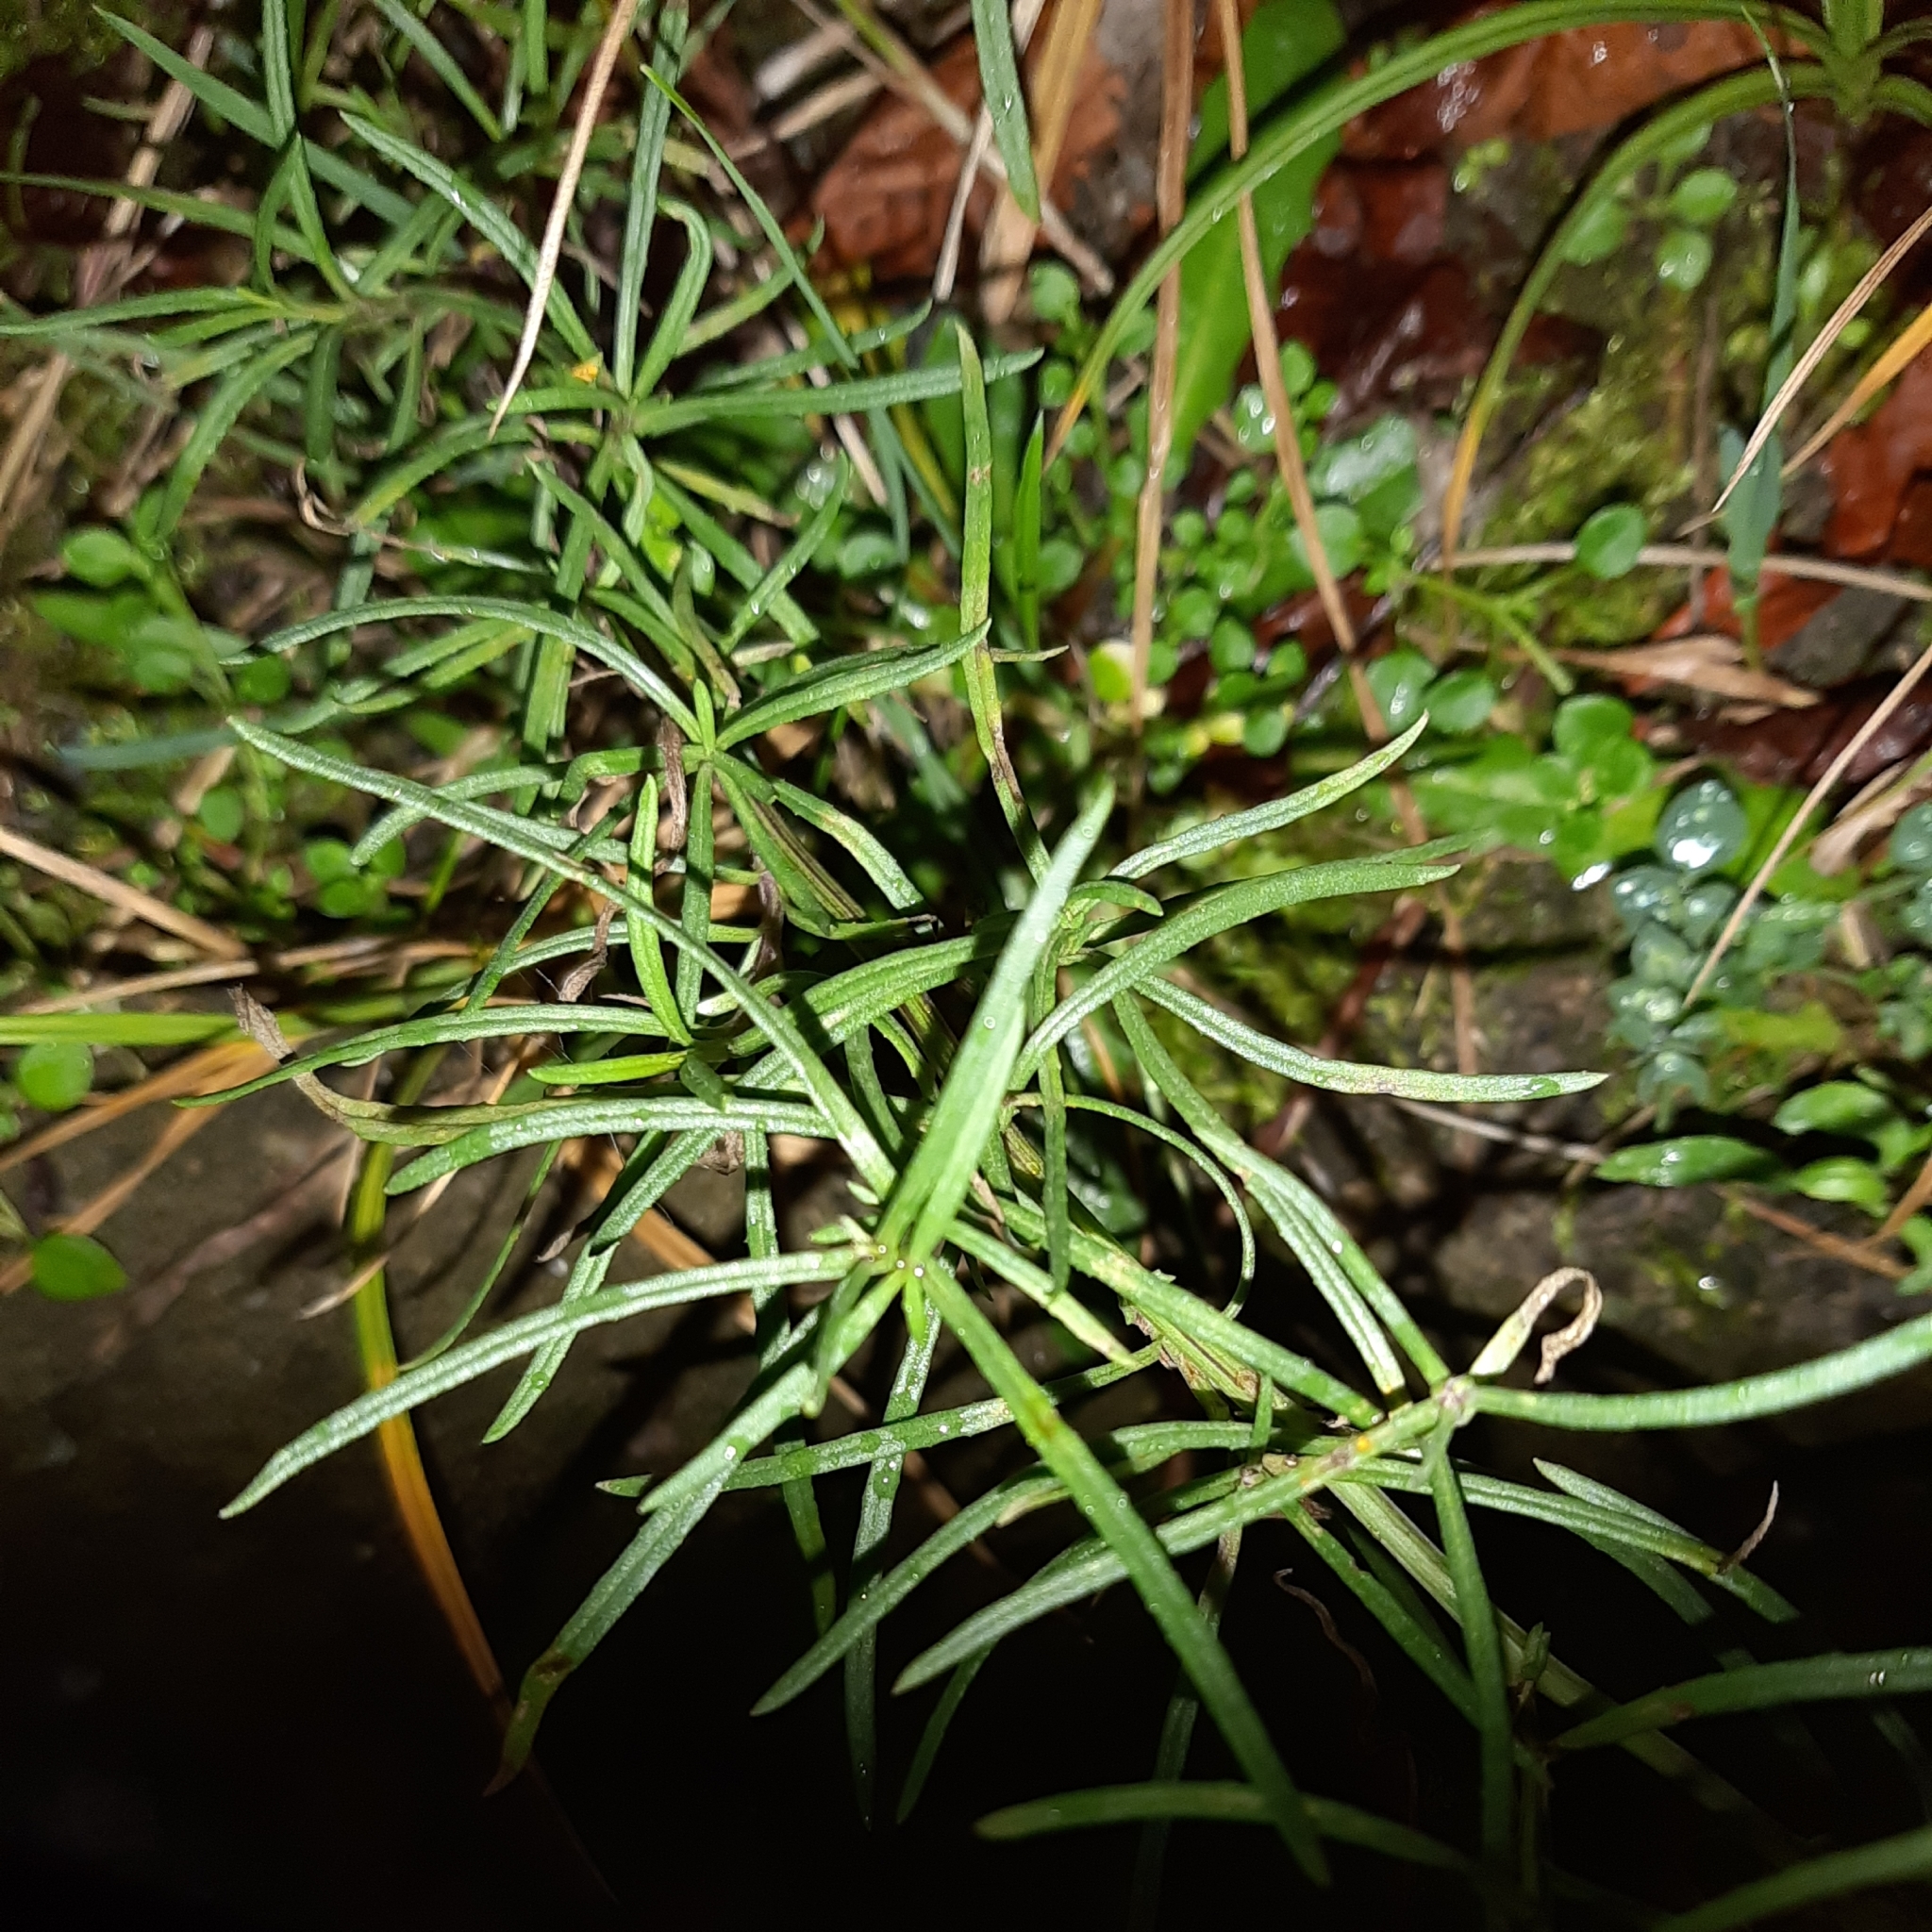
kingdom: Plantae
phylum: Tracheophyta
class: Magnoliopsida
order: Asterales
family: Asteraceae
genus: Senecio
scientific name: Senecio inaequidens
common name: Narrow-leaved ragwort
